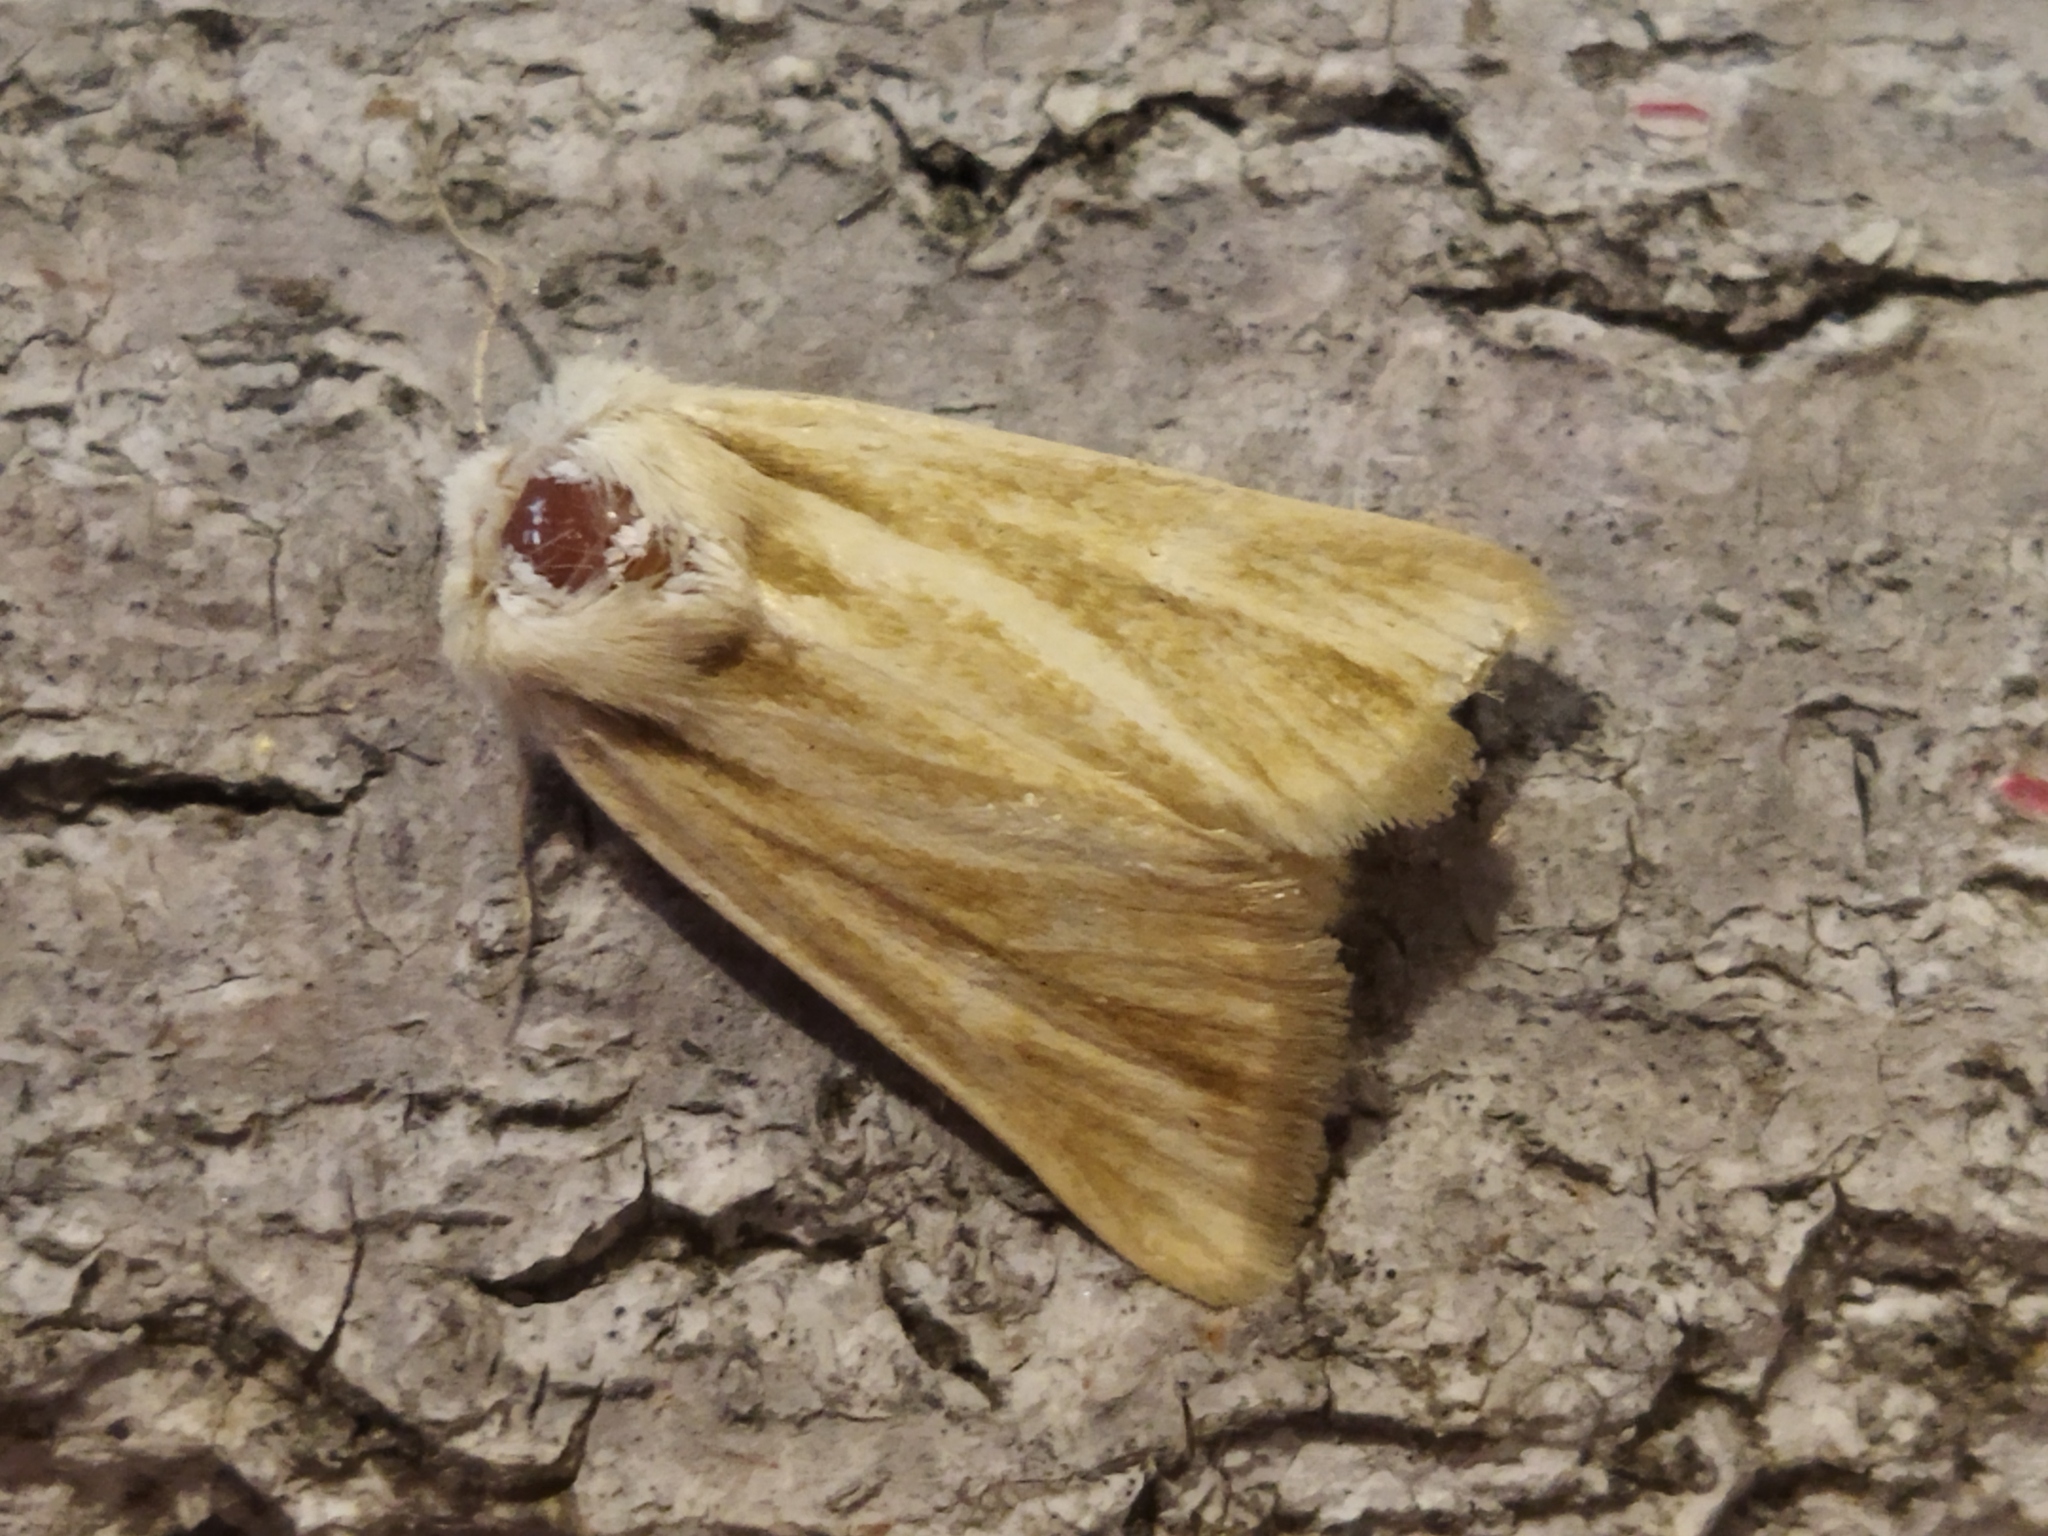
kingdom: Animalia
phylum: Arthropoda
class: Insecta
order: Lepidoptera
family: Noctuidae
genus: Oria
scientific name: Oria musculosa
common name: Brighton wainscot
